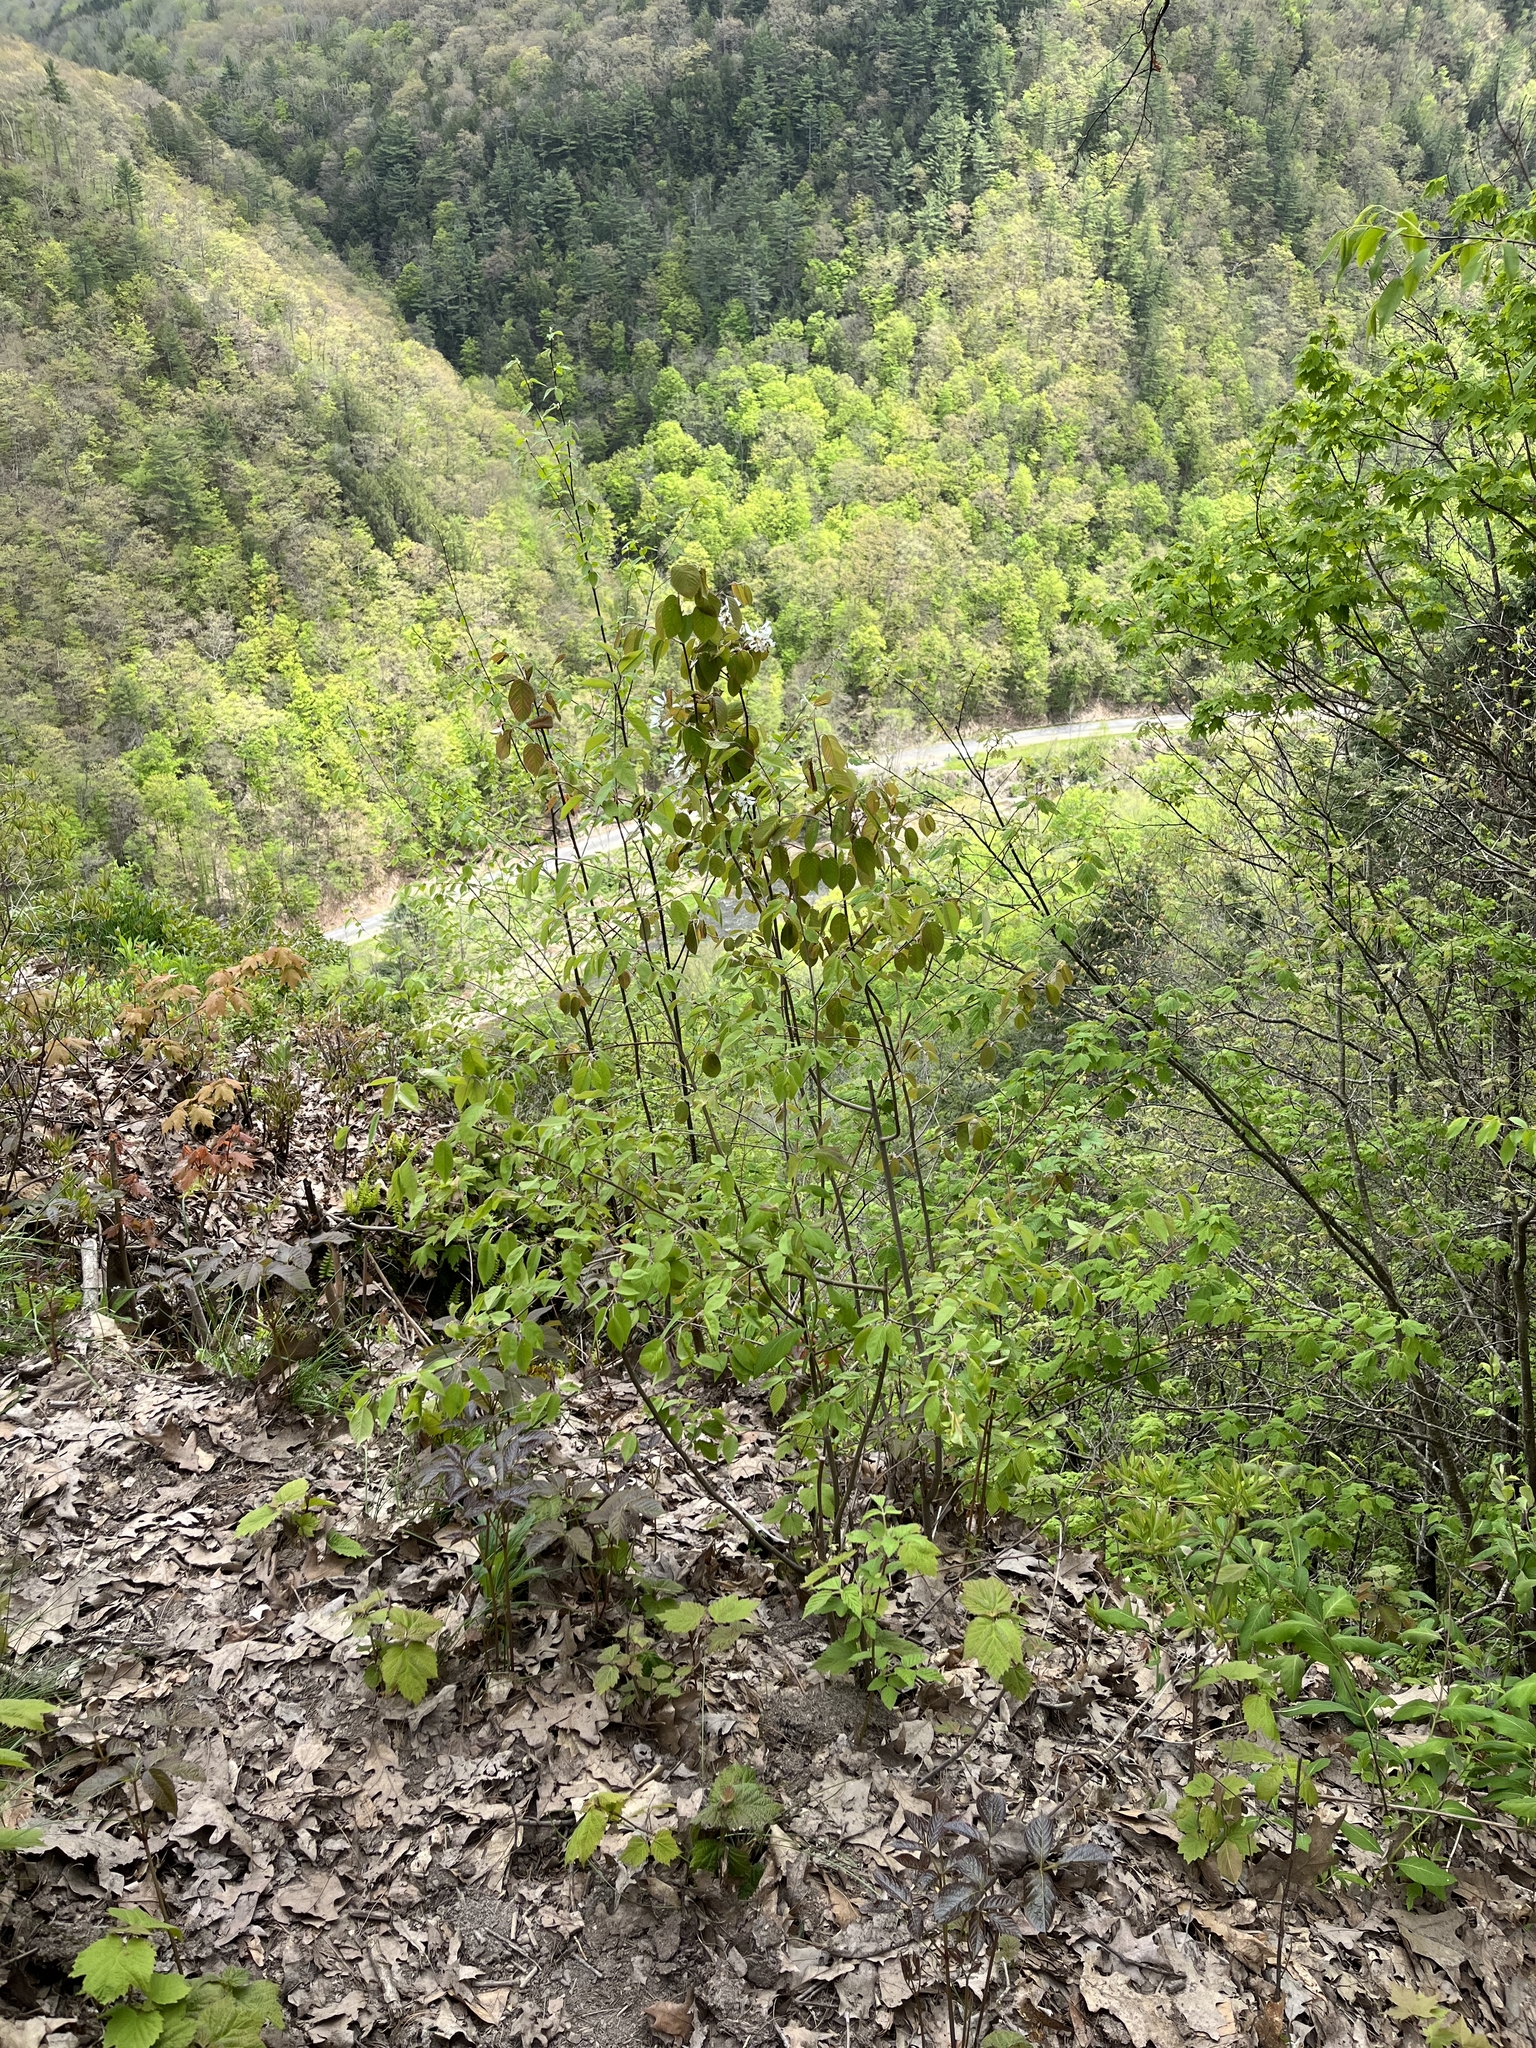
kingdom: Plantae
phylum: Tracheophyta
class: Magnoliopsida
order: Rosales
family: Rosaceae
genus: Amelanchier
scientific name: Amelanchier sanguinea
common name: Huron serviceberry
